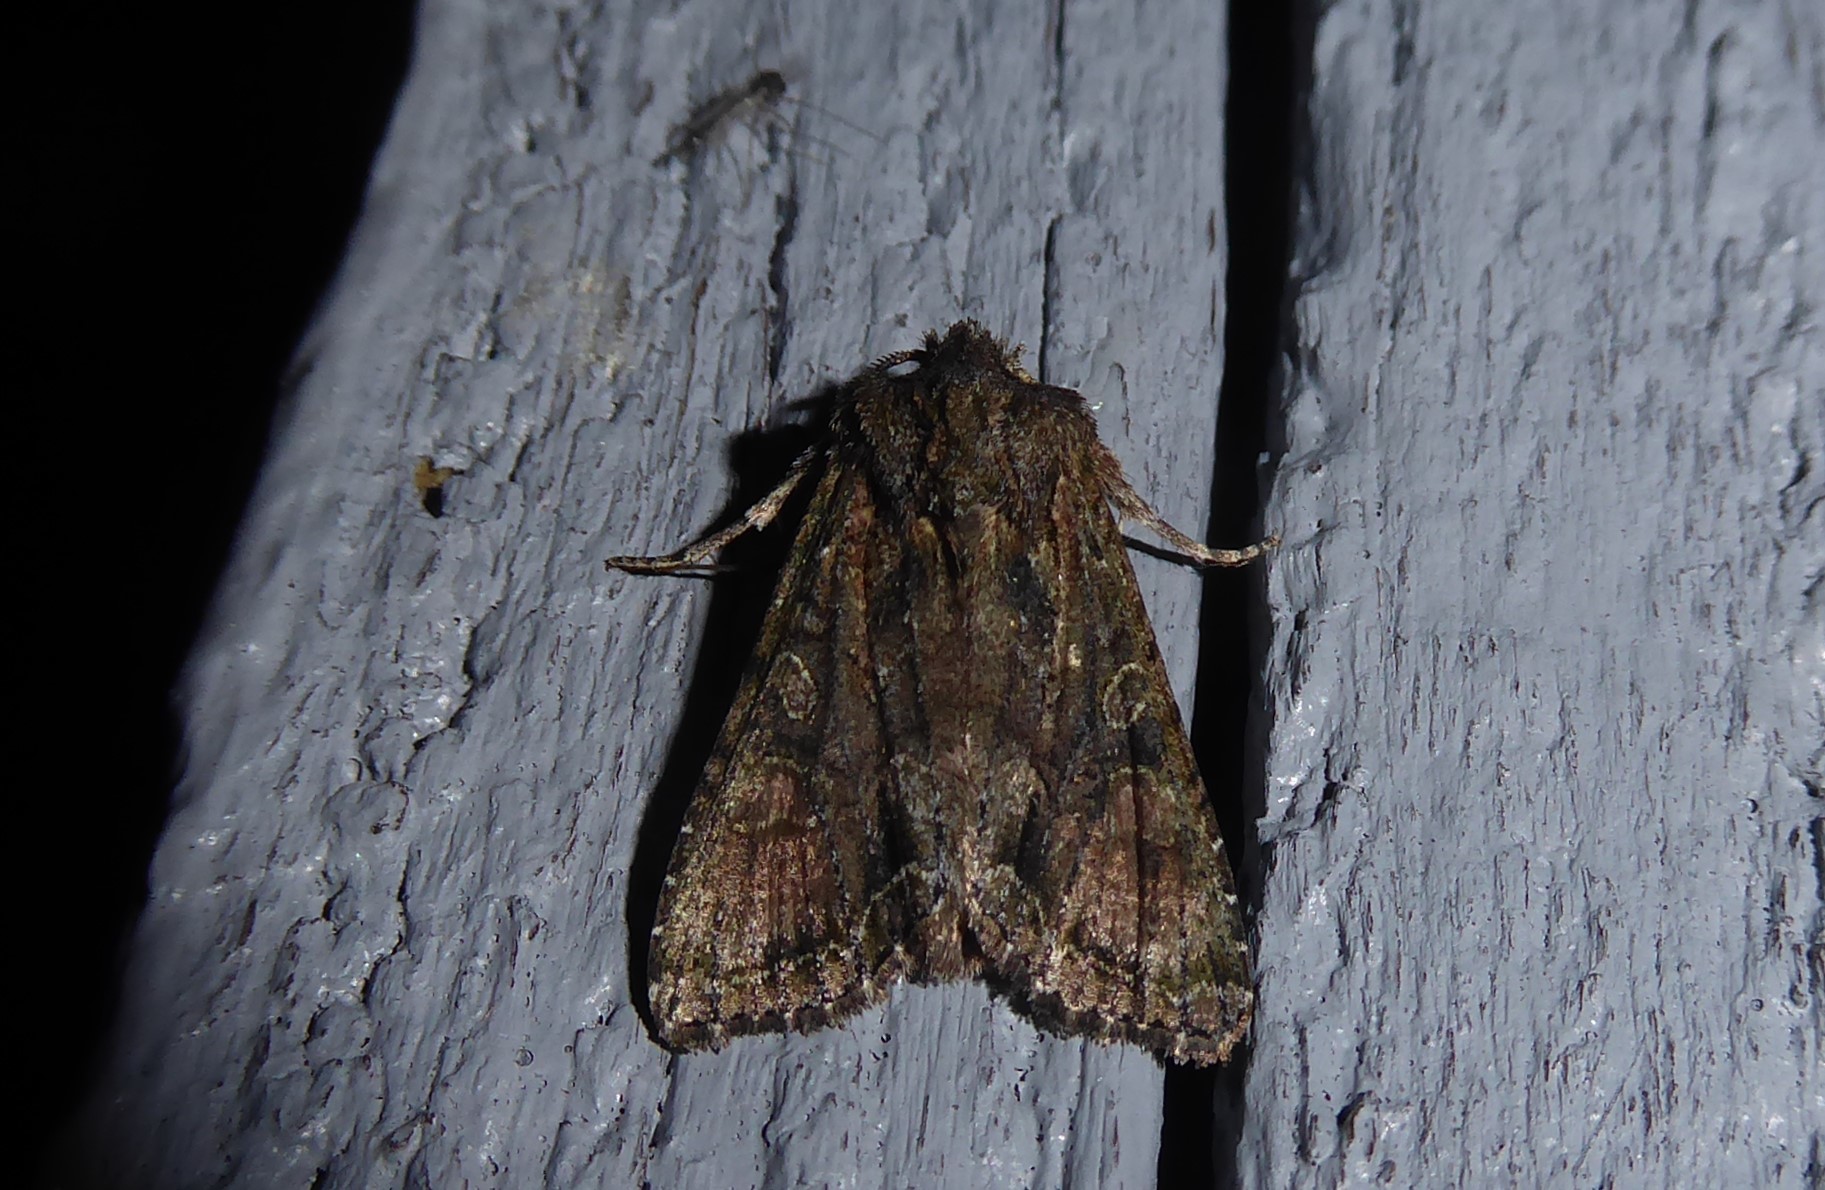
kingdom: Animalia
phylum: Arthropoda
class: Insecta
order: Lepidoptera
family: Noctuidae
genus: Ichneutica
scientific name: Ichneutica mutans
